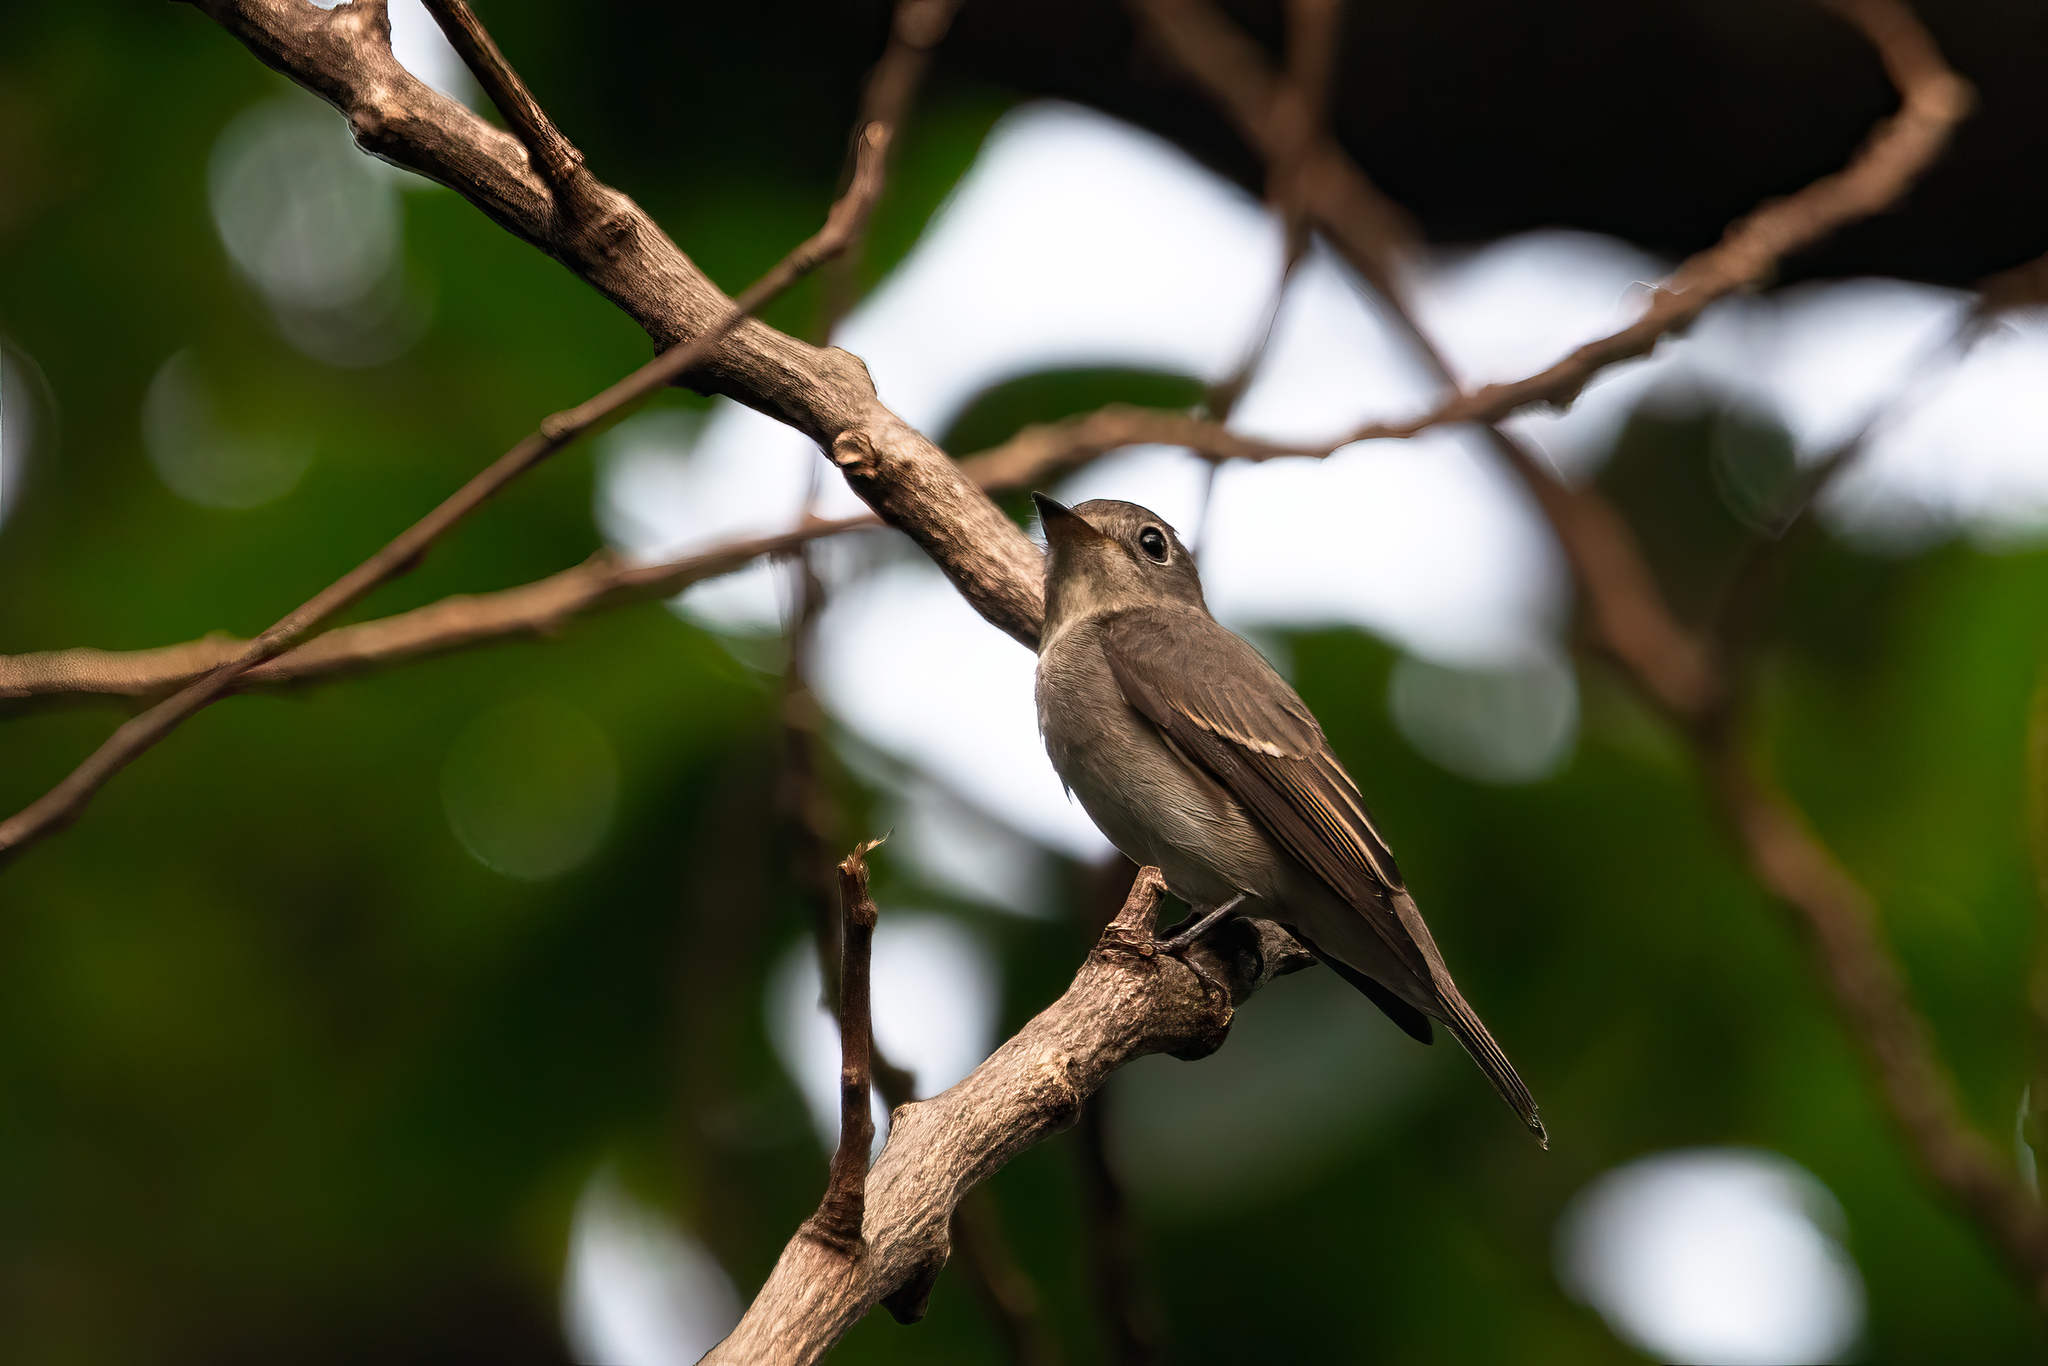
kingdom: Animalia
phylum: Chordata
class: Aves
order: Passeriformes
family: Muscicapidae
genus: Muscicapa
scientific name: Muscicapa latirostris
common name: Asian brown flycatcher
